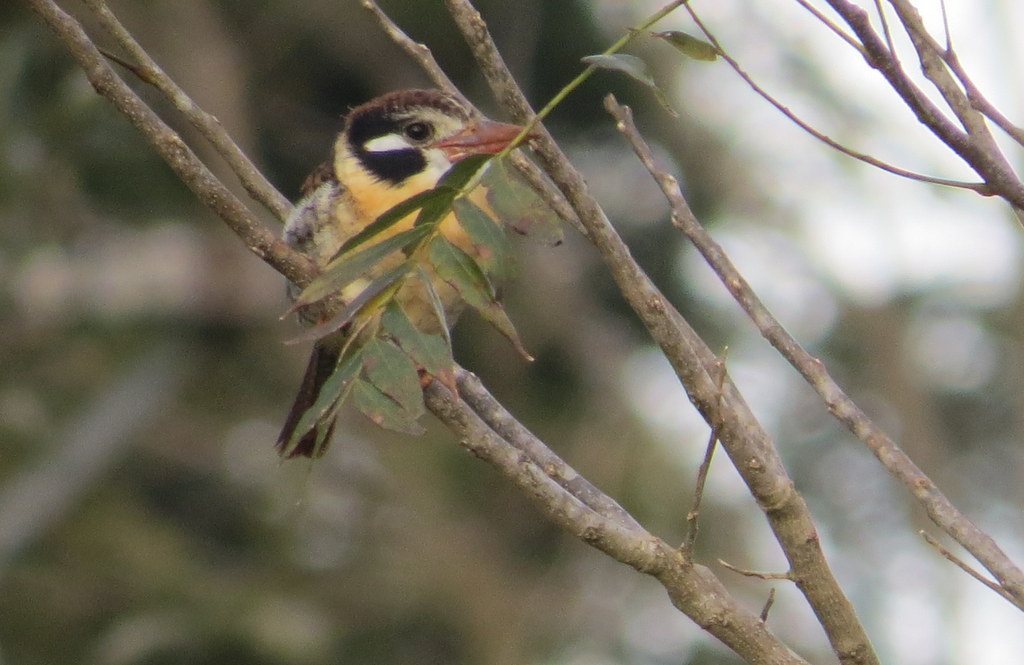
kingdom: Animalia
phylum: Chordata
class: Aves
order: Piciformes
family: Bucconidae
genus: Nystalus
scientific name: Nystalus chacuru
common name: White-eared puffbird
